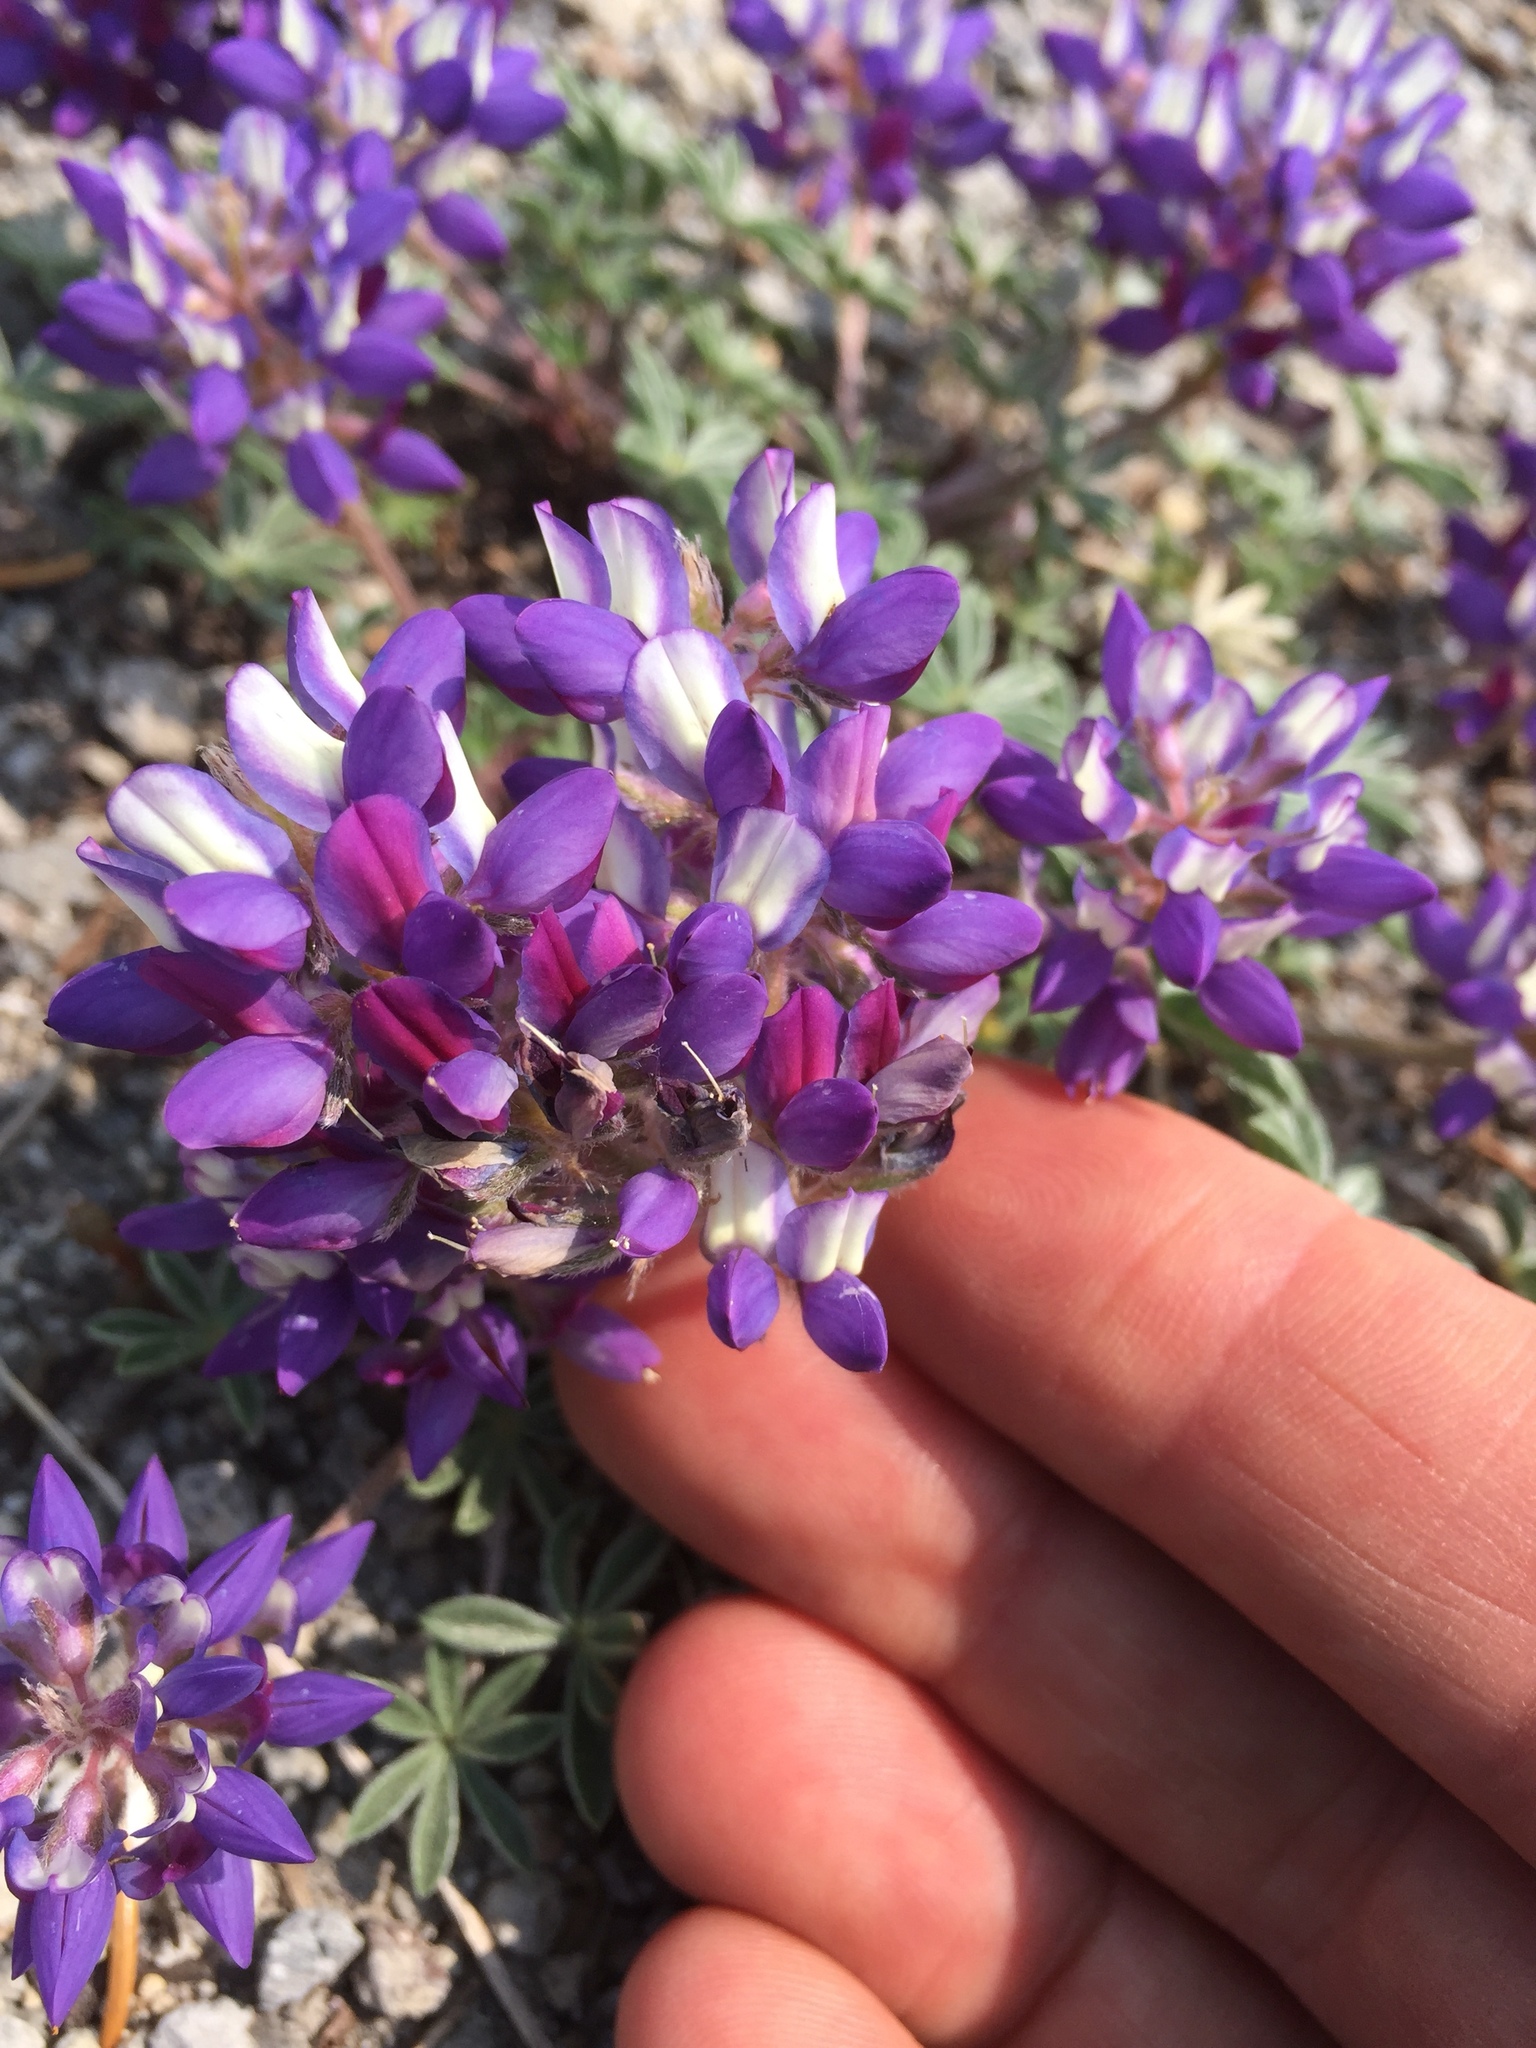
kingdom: Plantae
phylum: Tracheophyta
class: Magnoliopsida
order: Fabales
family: Fabaceae
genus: Lupinus
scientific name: Lupinus lepidus
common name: Prairie lupine
